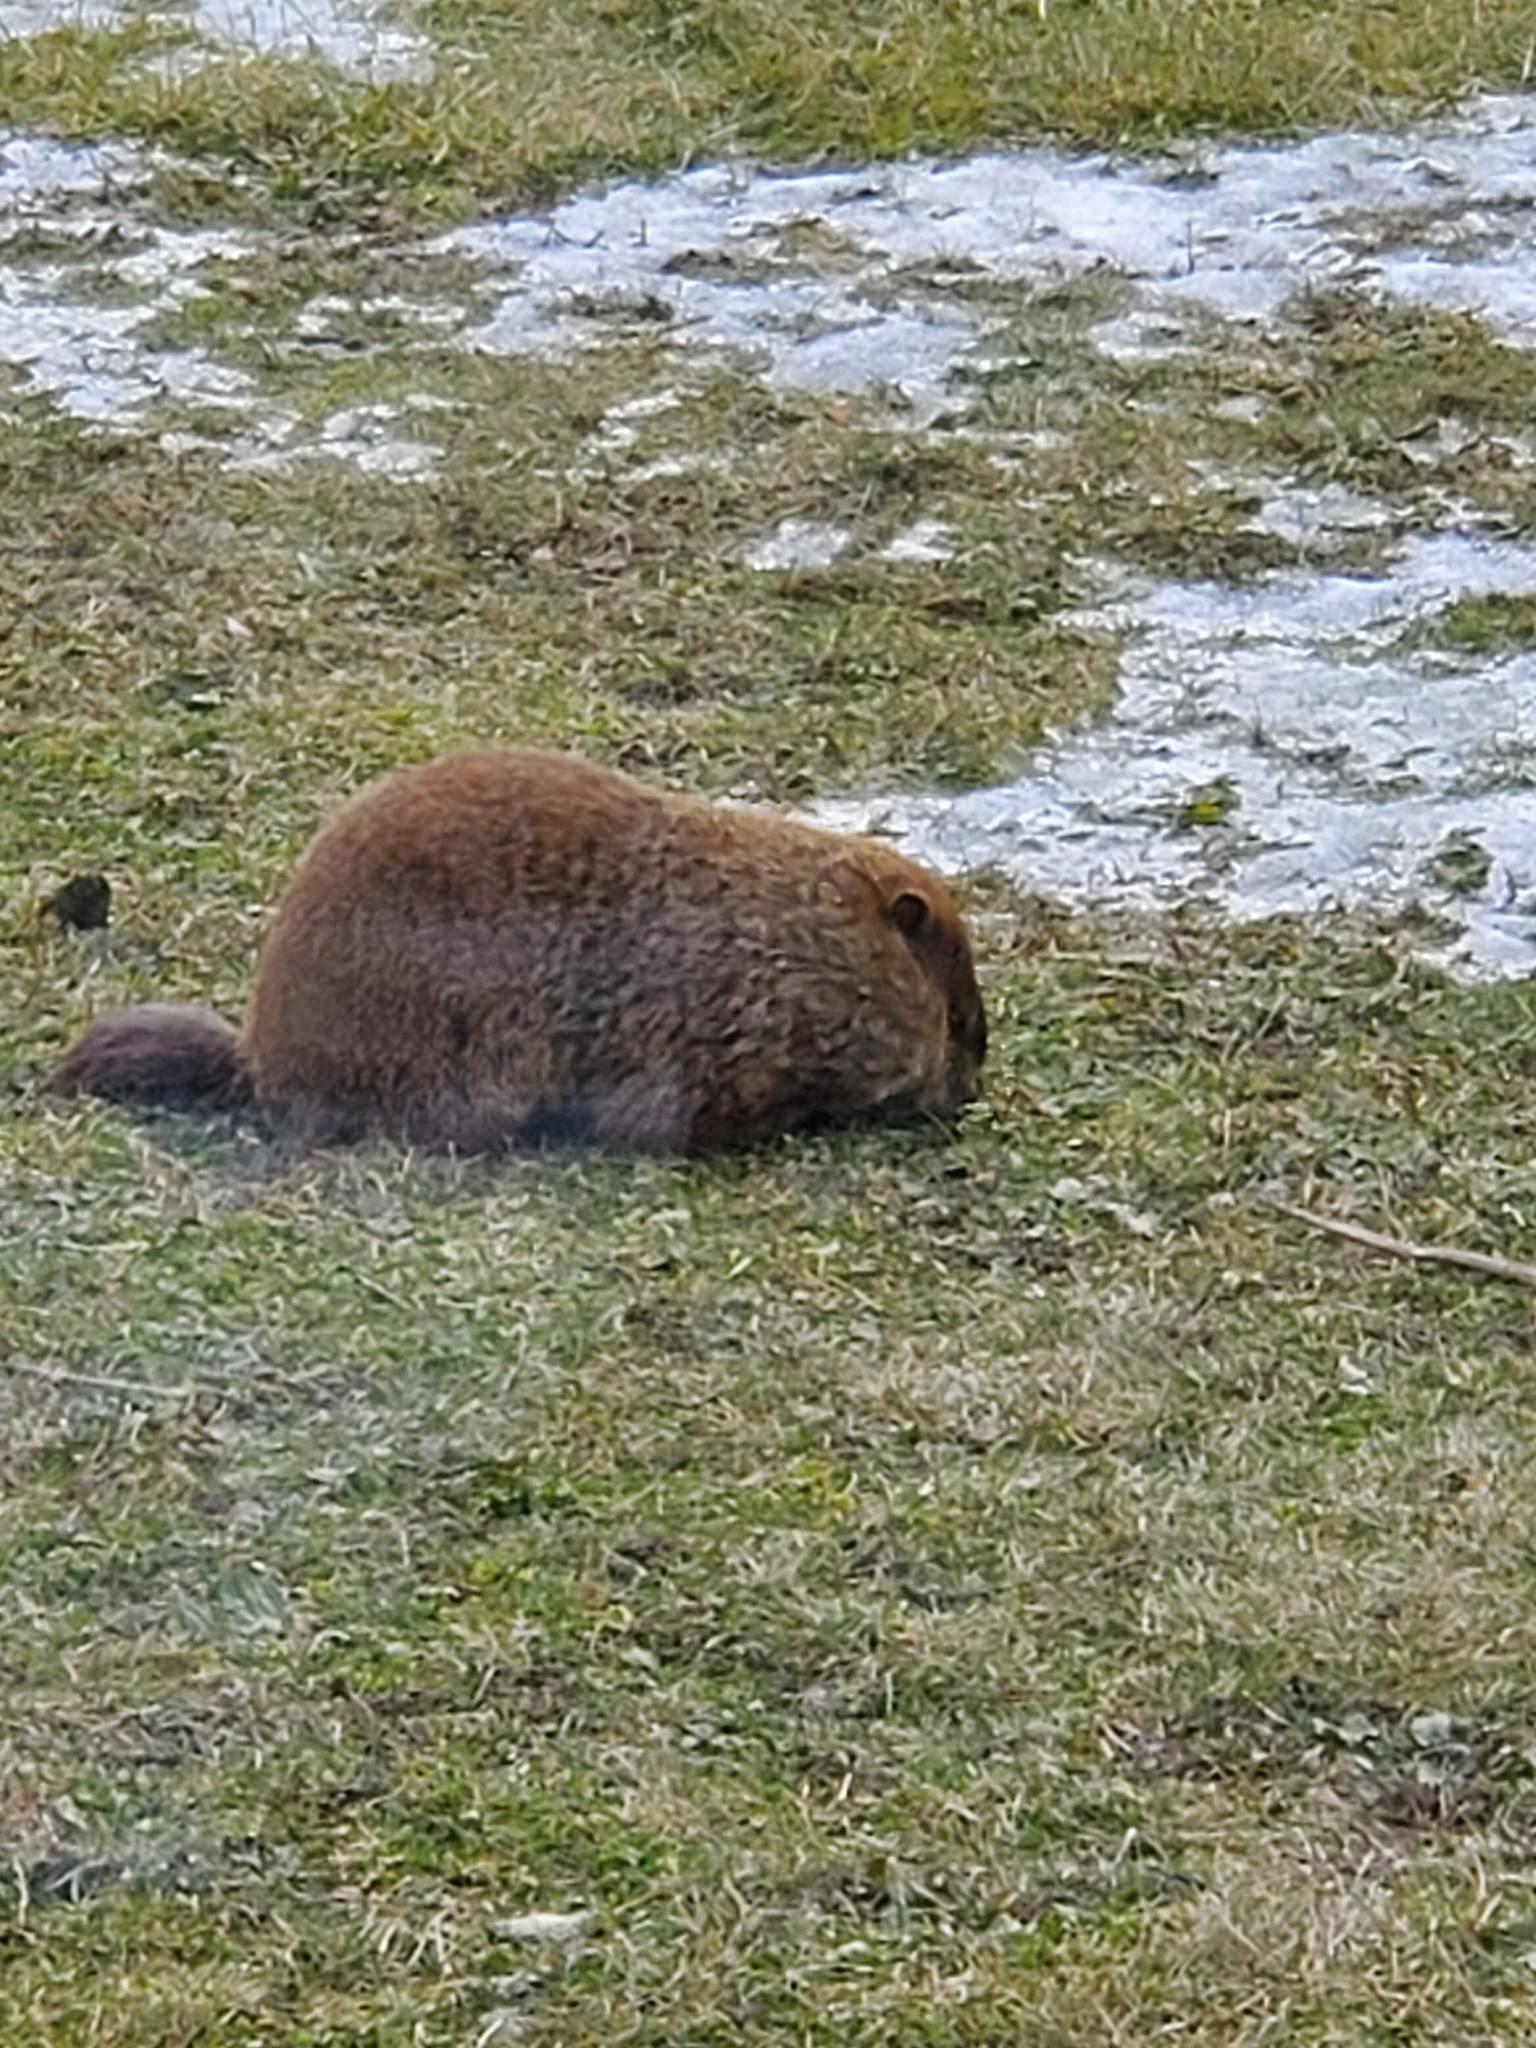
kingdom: Animalia
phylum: Chordata
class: Mammalia
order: Rodentia
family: Sciuridae
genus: Marmota
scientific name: Marmota monax
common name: Groundhog
